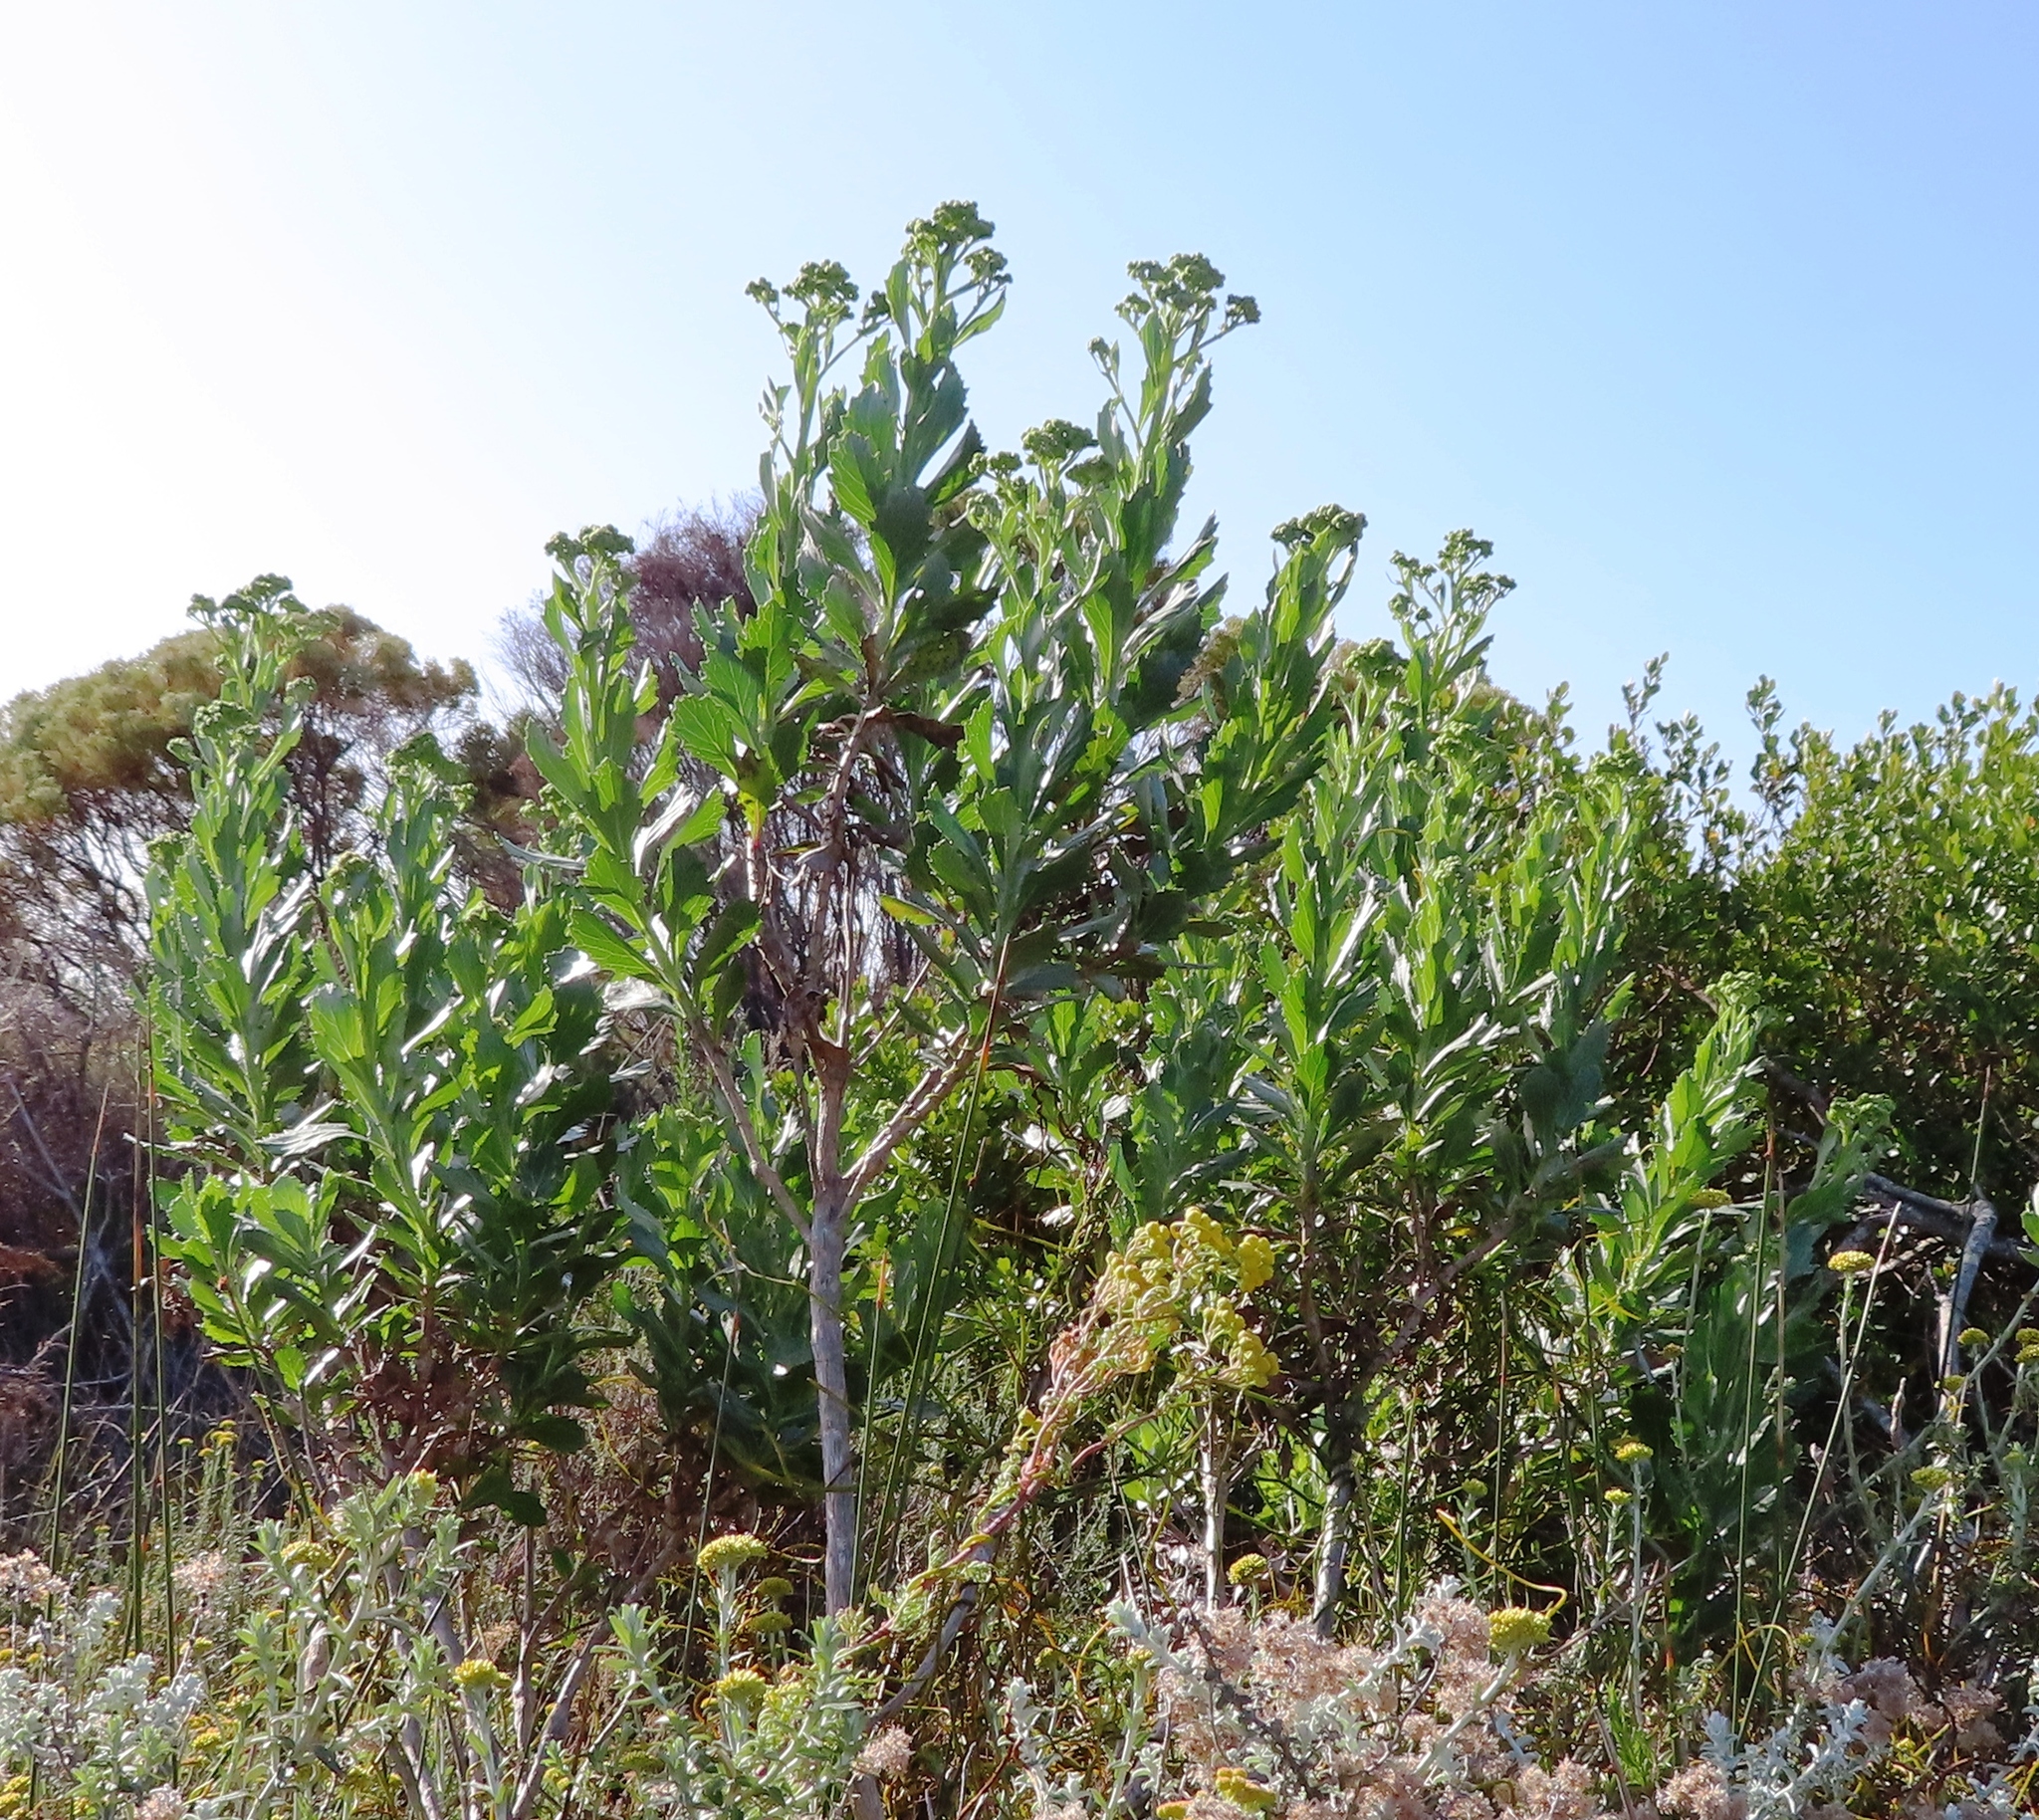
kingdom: Plantae
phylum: Tracheophyta
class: Magnoliopsida
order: Asterales
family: Asteraceae
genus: Senecio
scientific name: Senecio halimifolius
